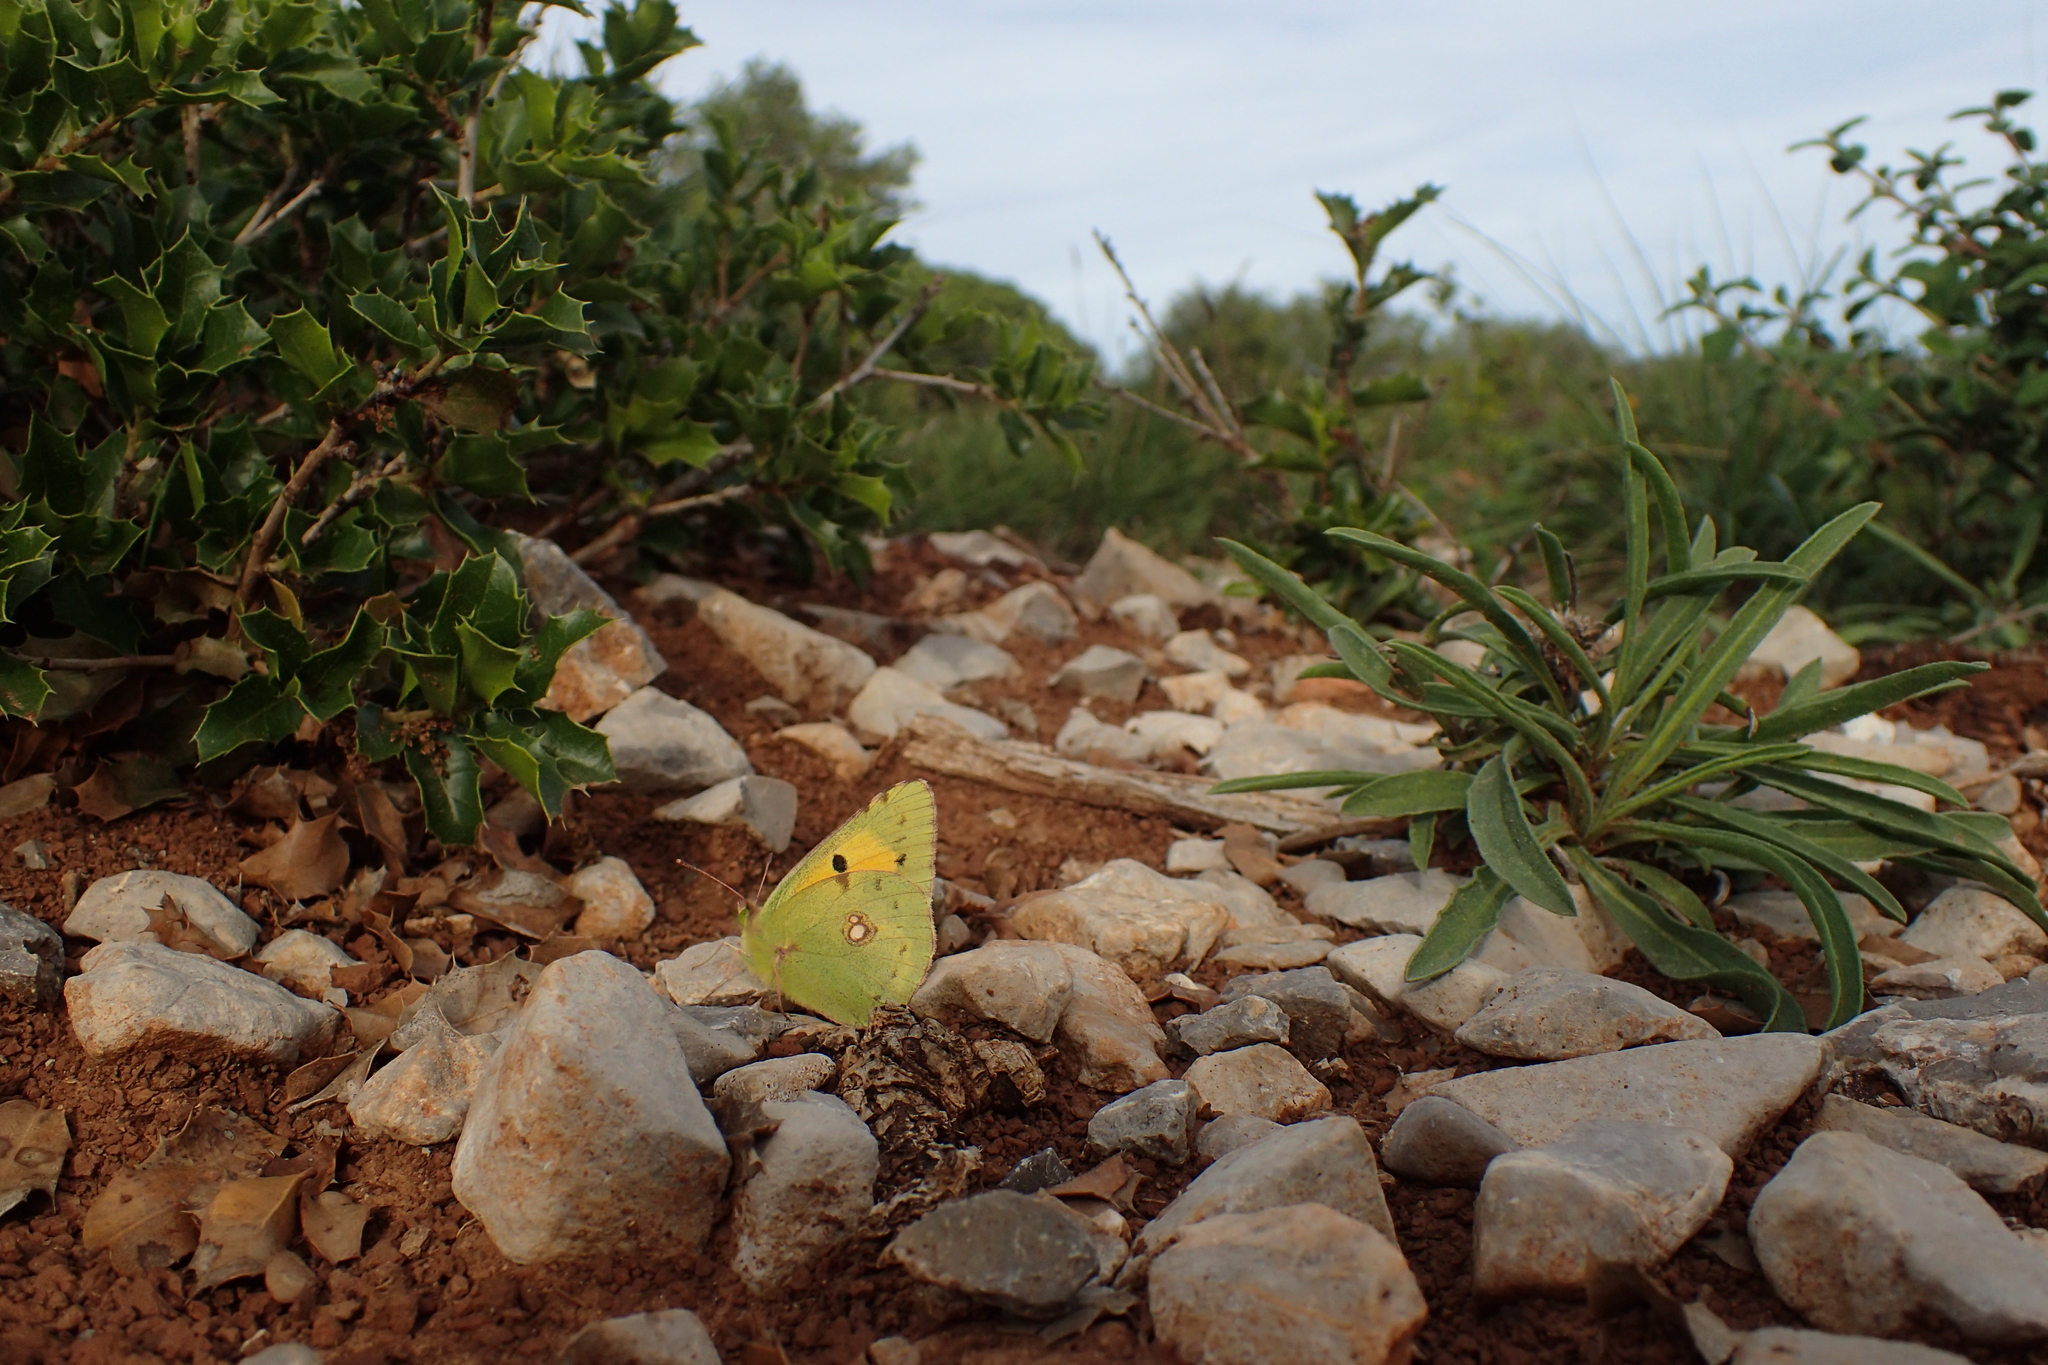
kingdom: Animalia
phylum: Arthropoda
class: Insecta
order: Lepidoptera
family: Pieridae
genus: Colias
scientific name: Colias croceus
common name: Clouded yellow
